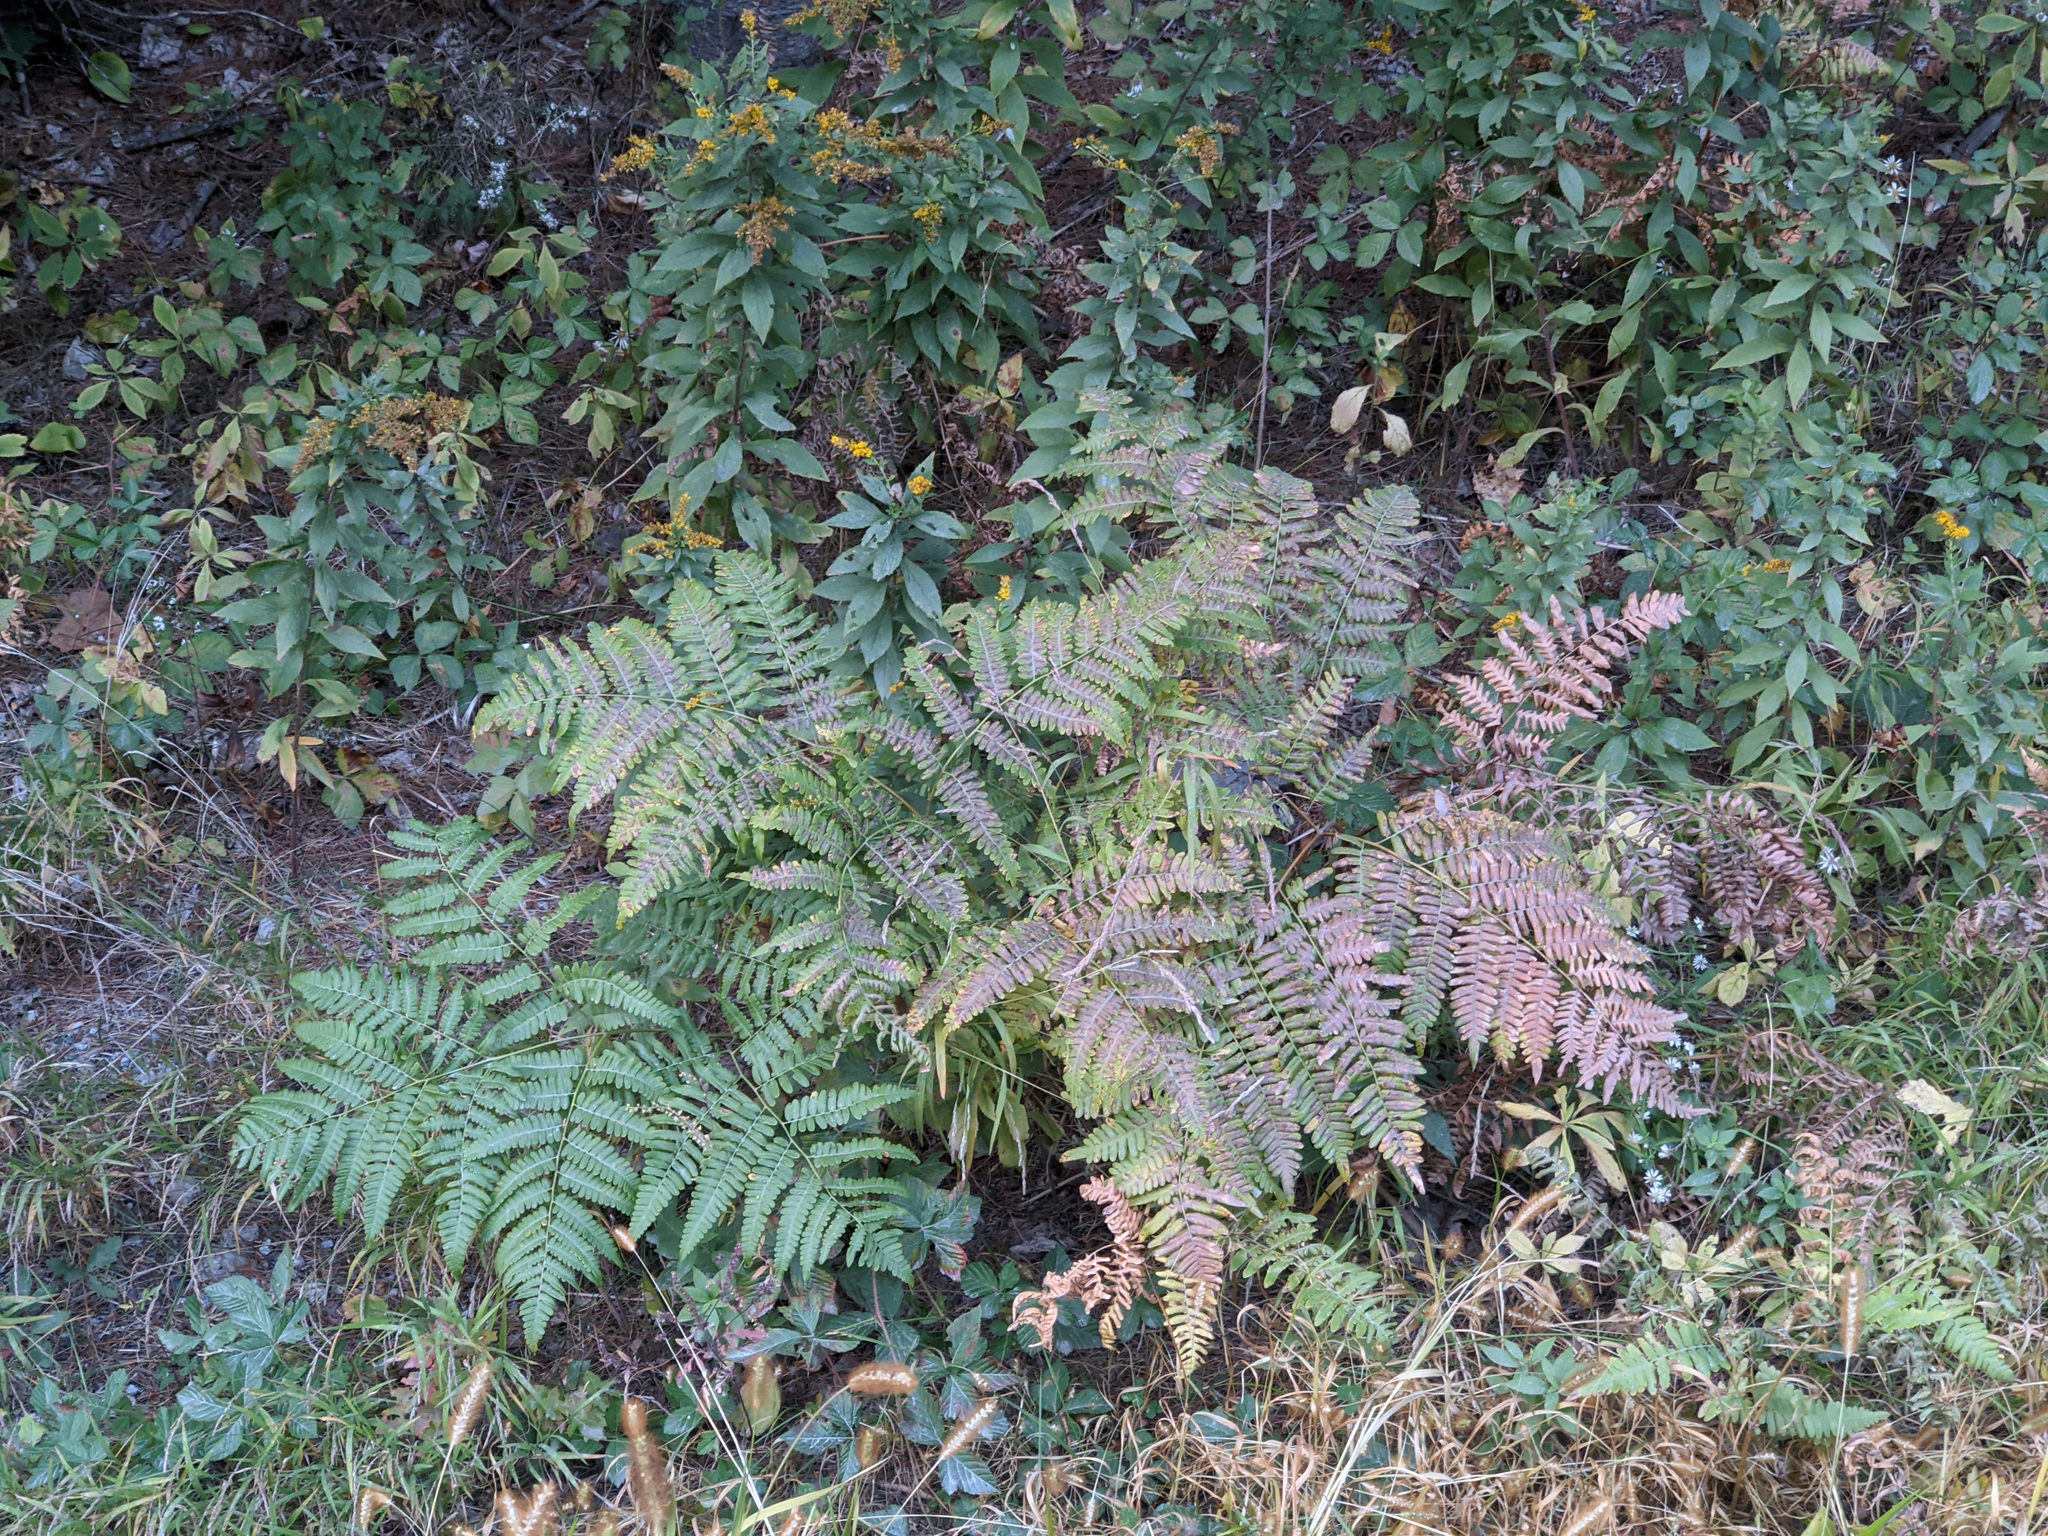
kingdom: Plantae
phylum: Tracheophyta
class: Polypodiopsida
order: Polypodiales
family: Dennstaedtiaceae
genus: Pteridium
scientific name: Pteridium aquilinum
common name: Bracken
